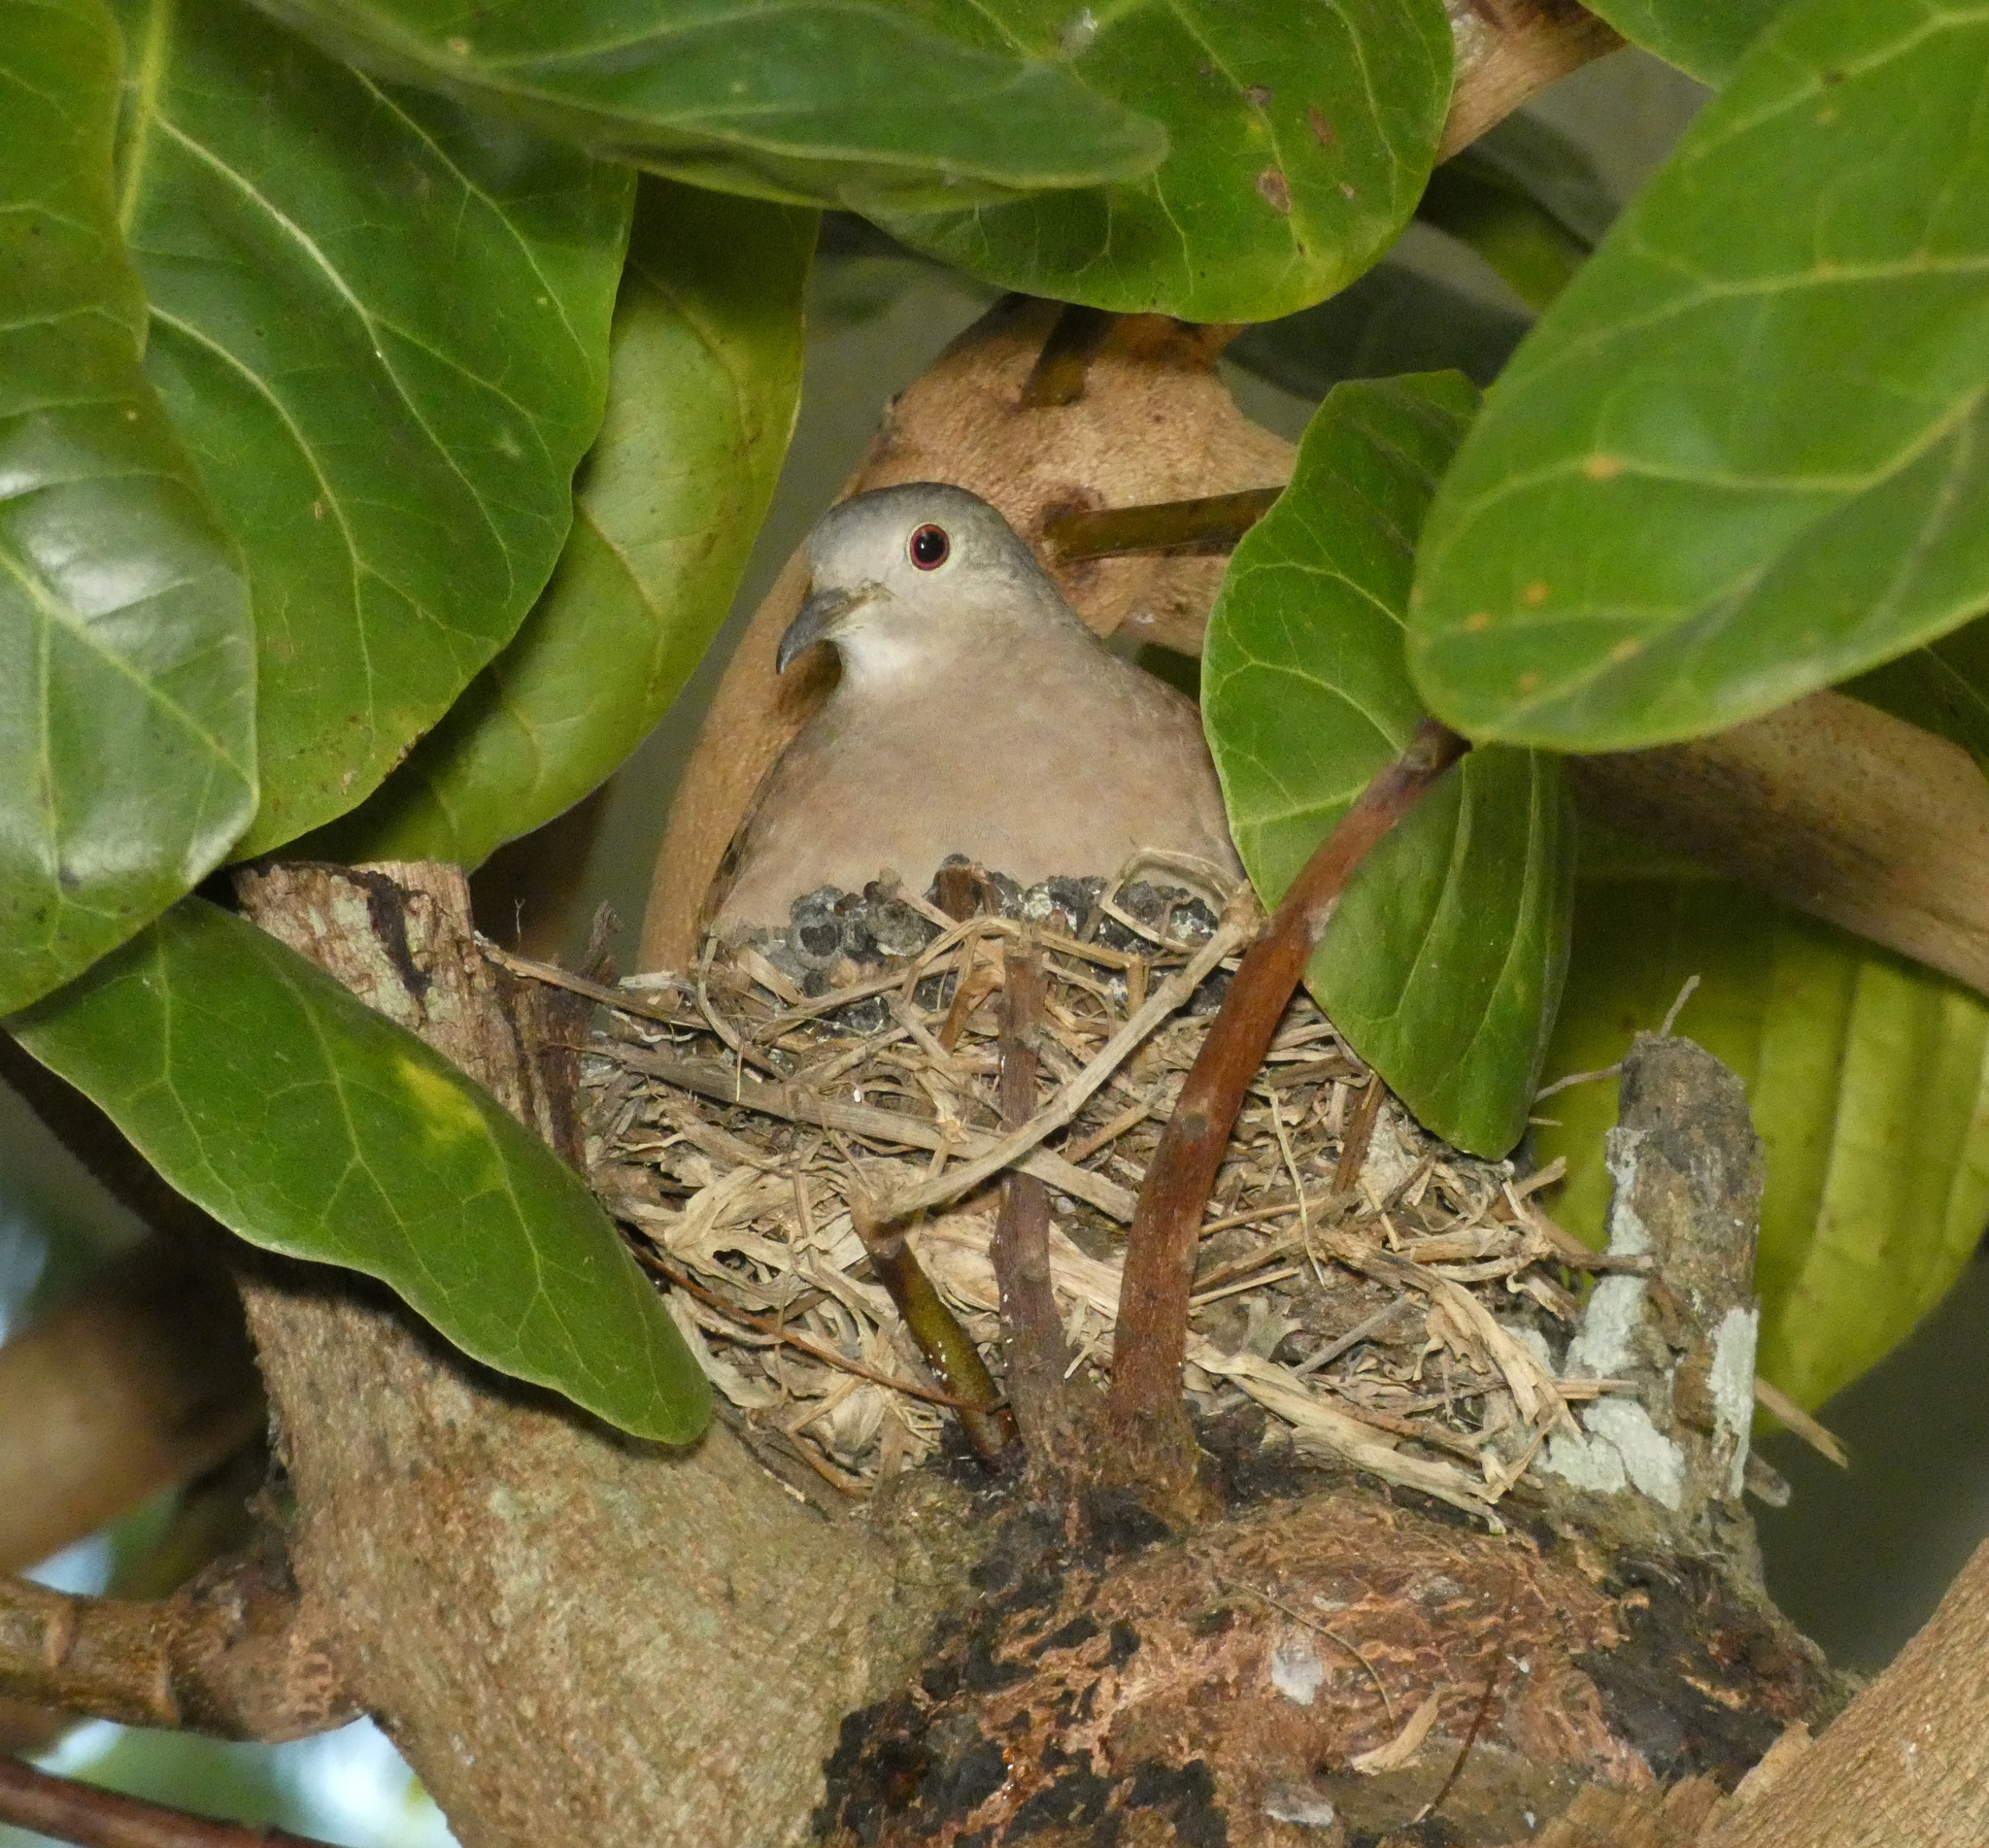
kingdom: Animalia
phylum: Chordata
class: Aves
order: Columbiformes
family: Columbidae
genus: Columbina
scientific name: Columbina talpacoti
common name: Ruddy ground dove
